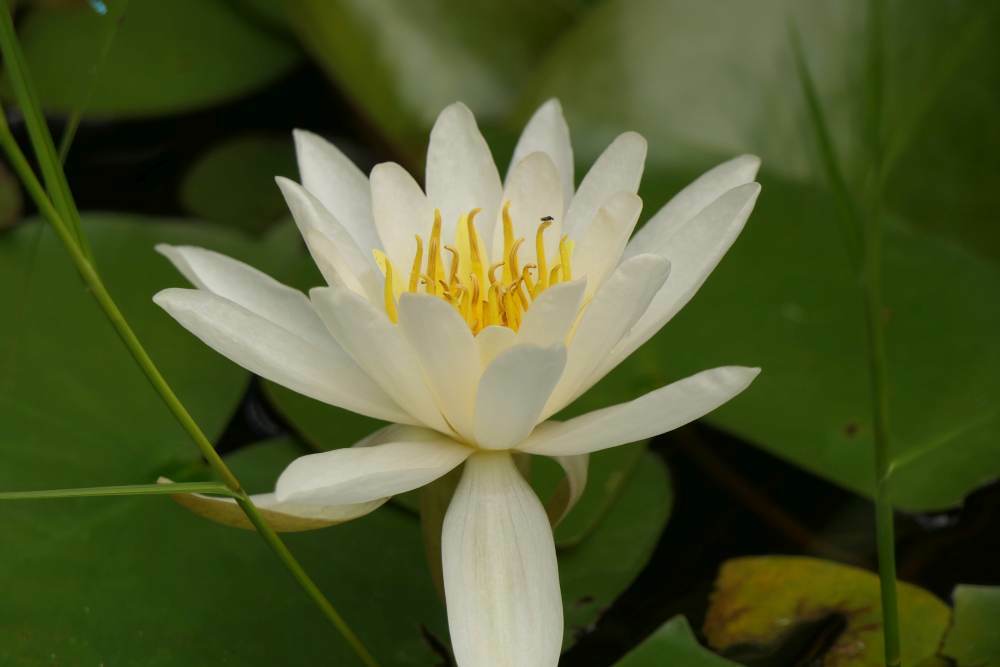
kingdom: Plantae
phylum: Tracheophyta
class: Magnoliopsida
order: Nymphaeales
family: Nymphaeaceae
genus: Nymphaea
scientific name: Nymphaea odorata
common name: Fragrant water-lily
